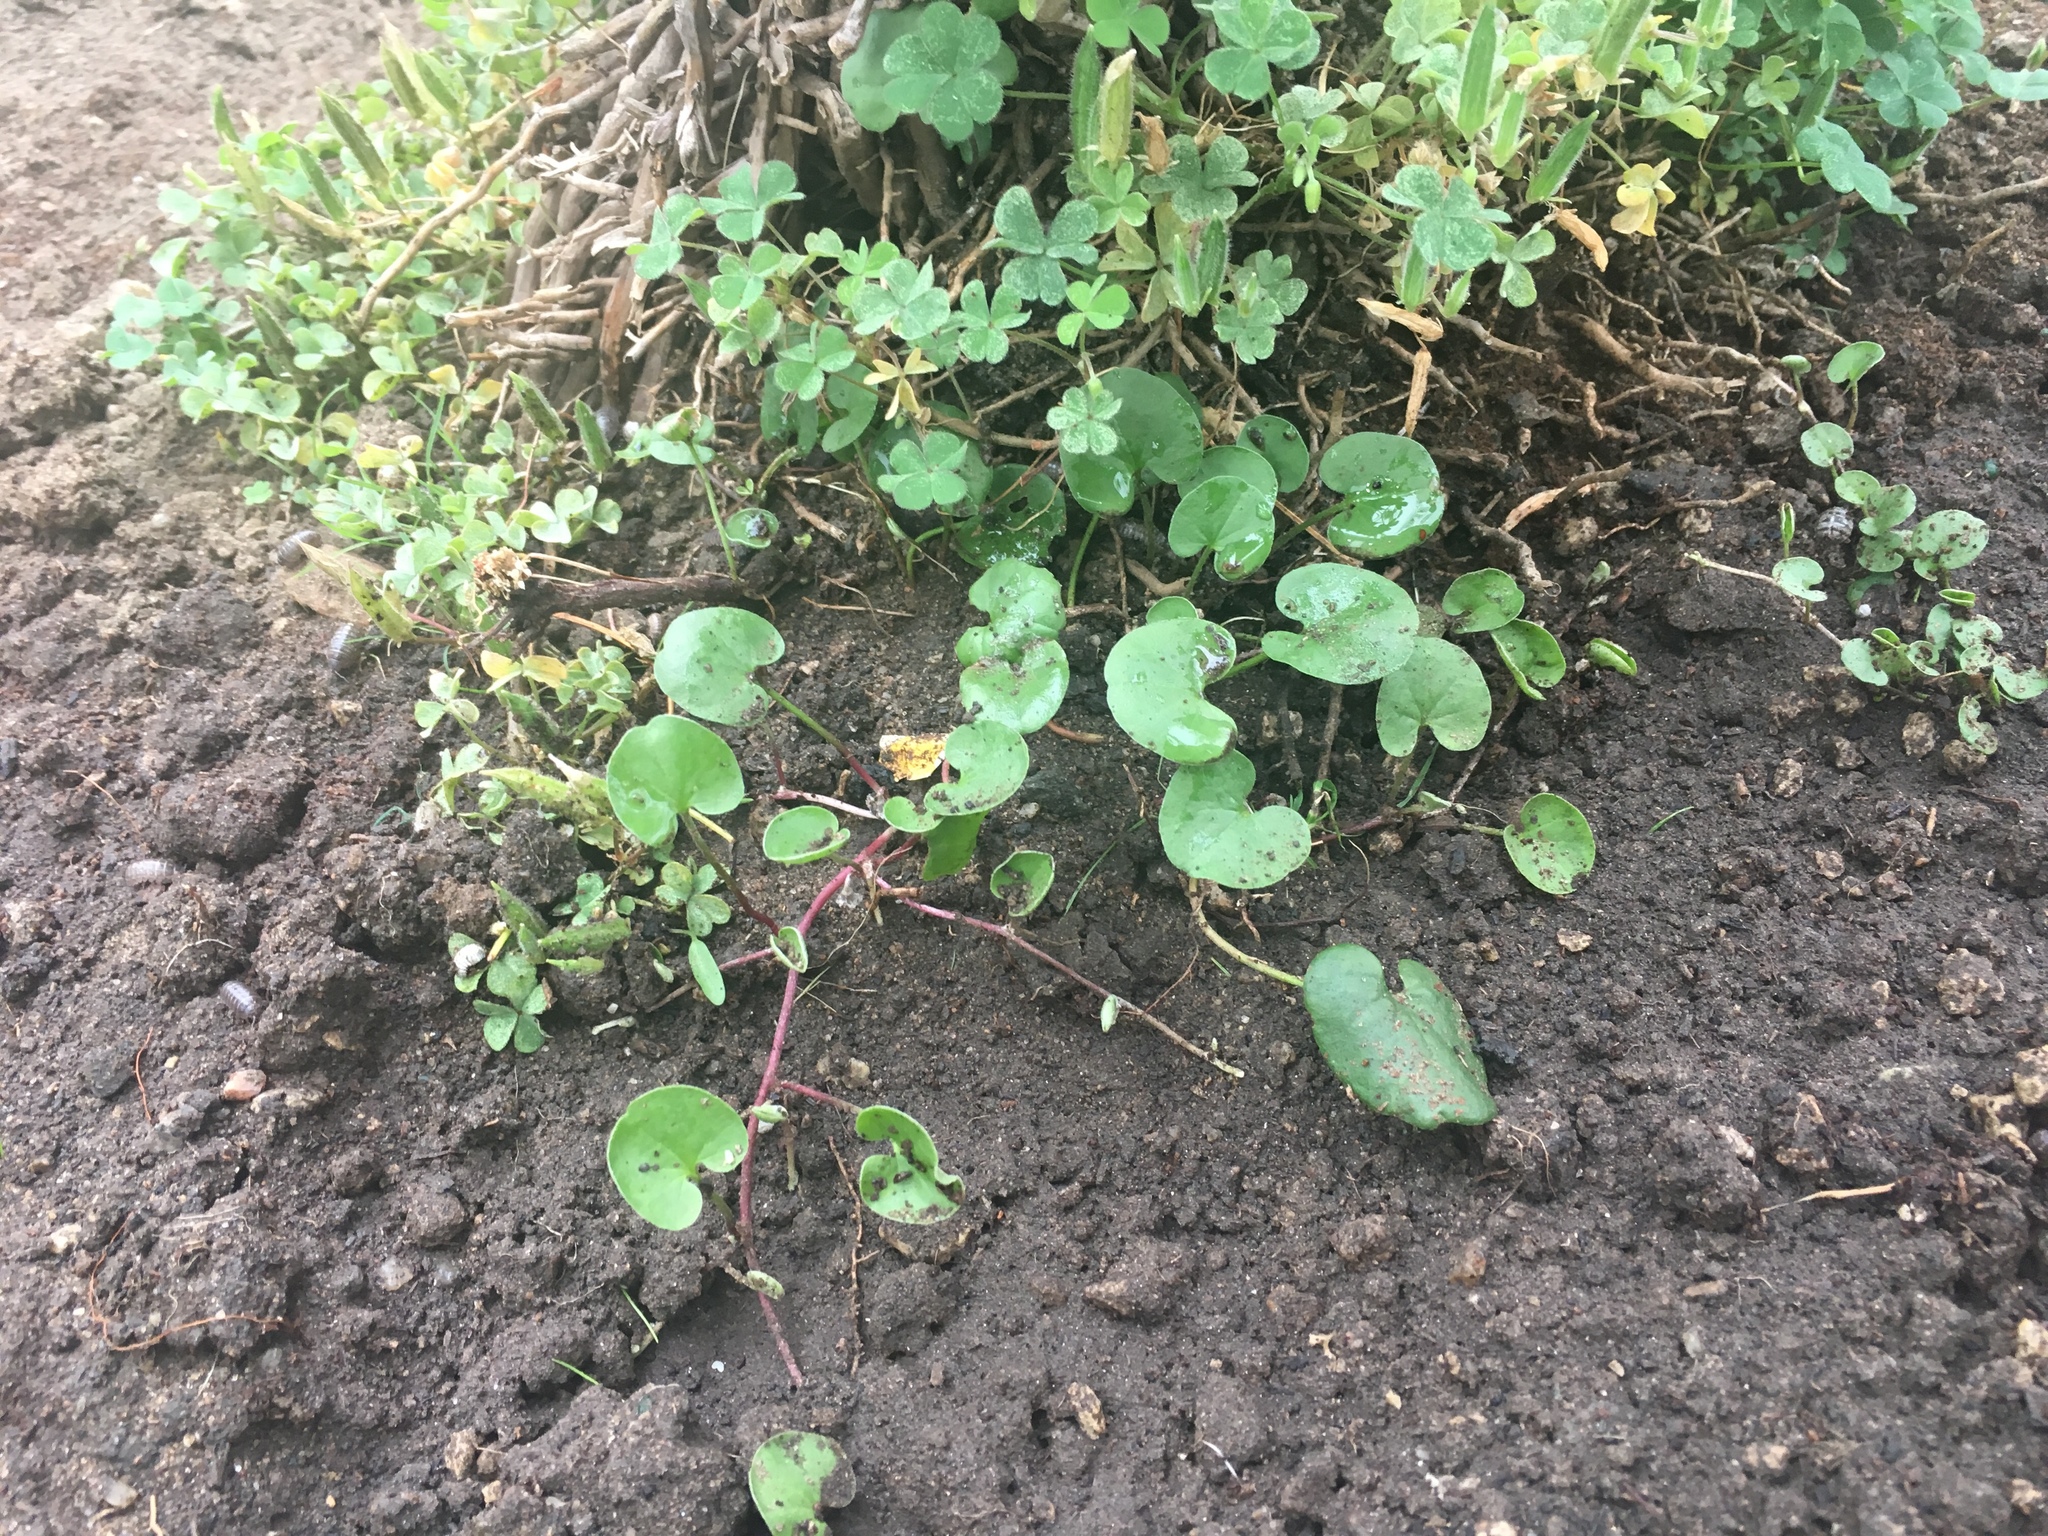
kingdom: Plantae
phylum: Tracheophyta
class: Magnoliopsida
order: Solanales
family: Convolvulaceae
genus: Dichondra
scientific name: Dichondra micrantha
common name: Kidneyweed
